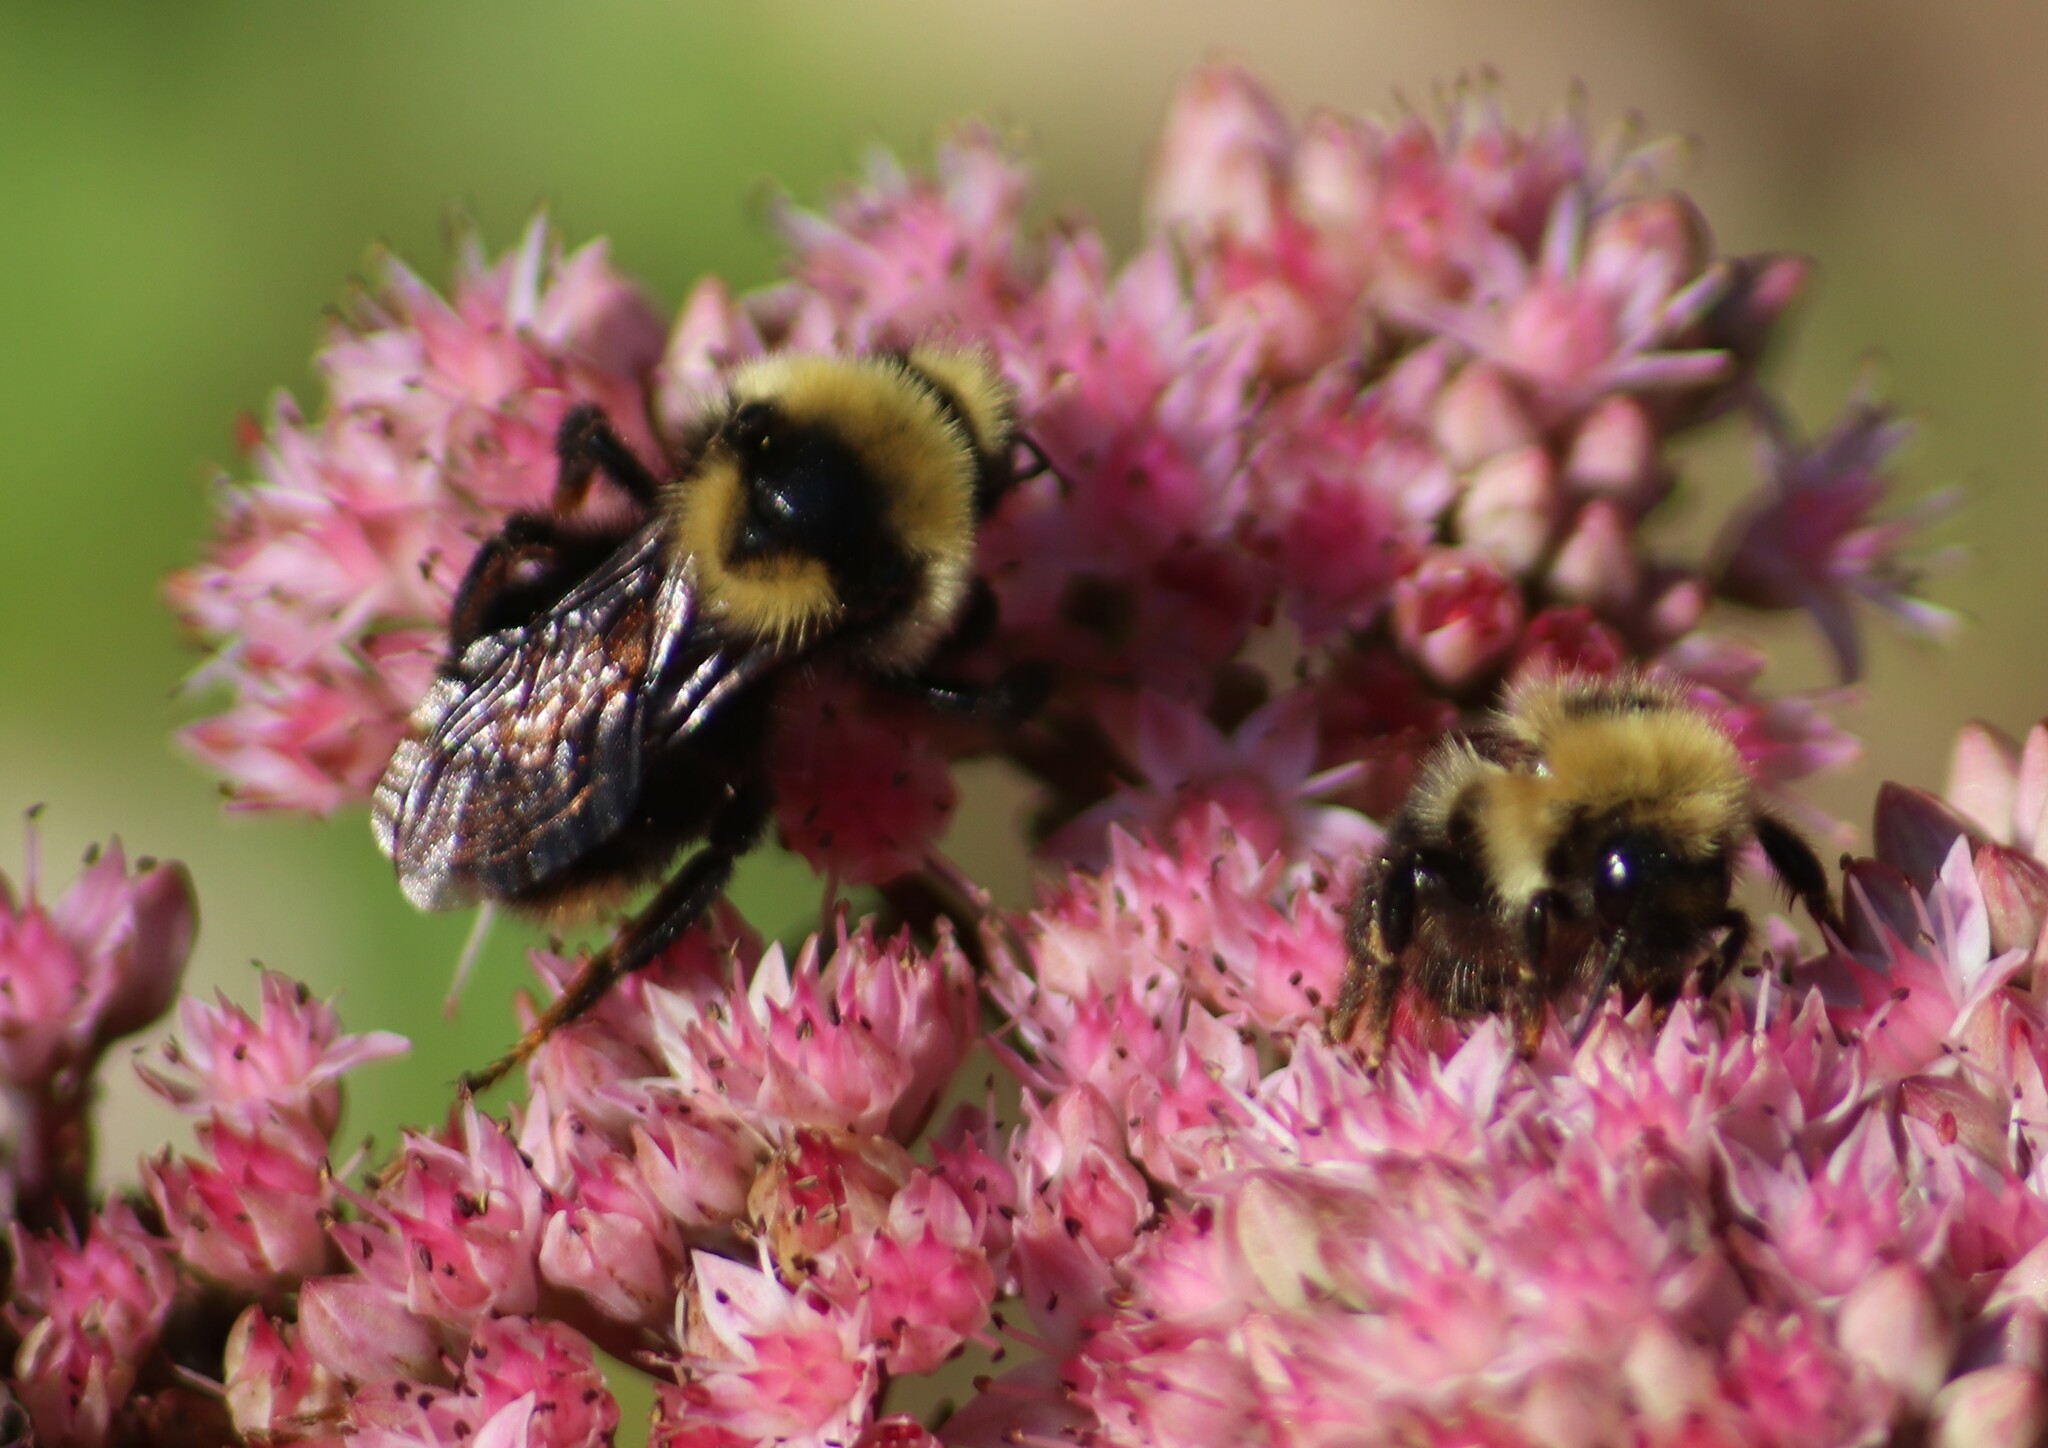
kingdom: Animalia
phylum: Arthropoda
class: Insecta
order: Hymenoptera
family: Apidae
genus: Bombus
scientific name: Bombus insularis
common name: Indiscriminate cuckoo bumble bee
